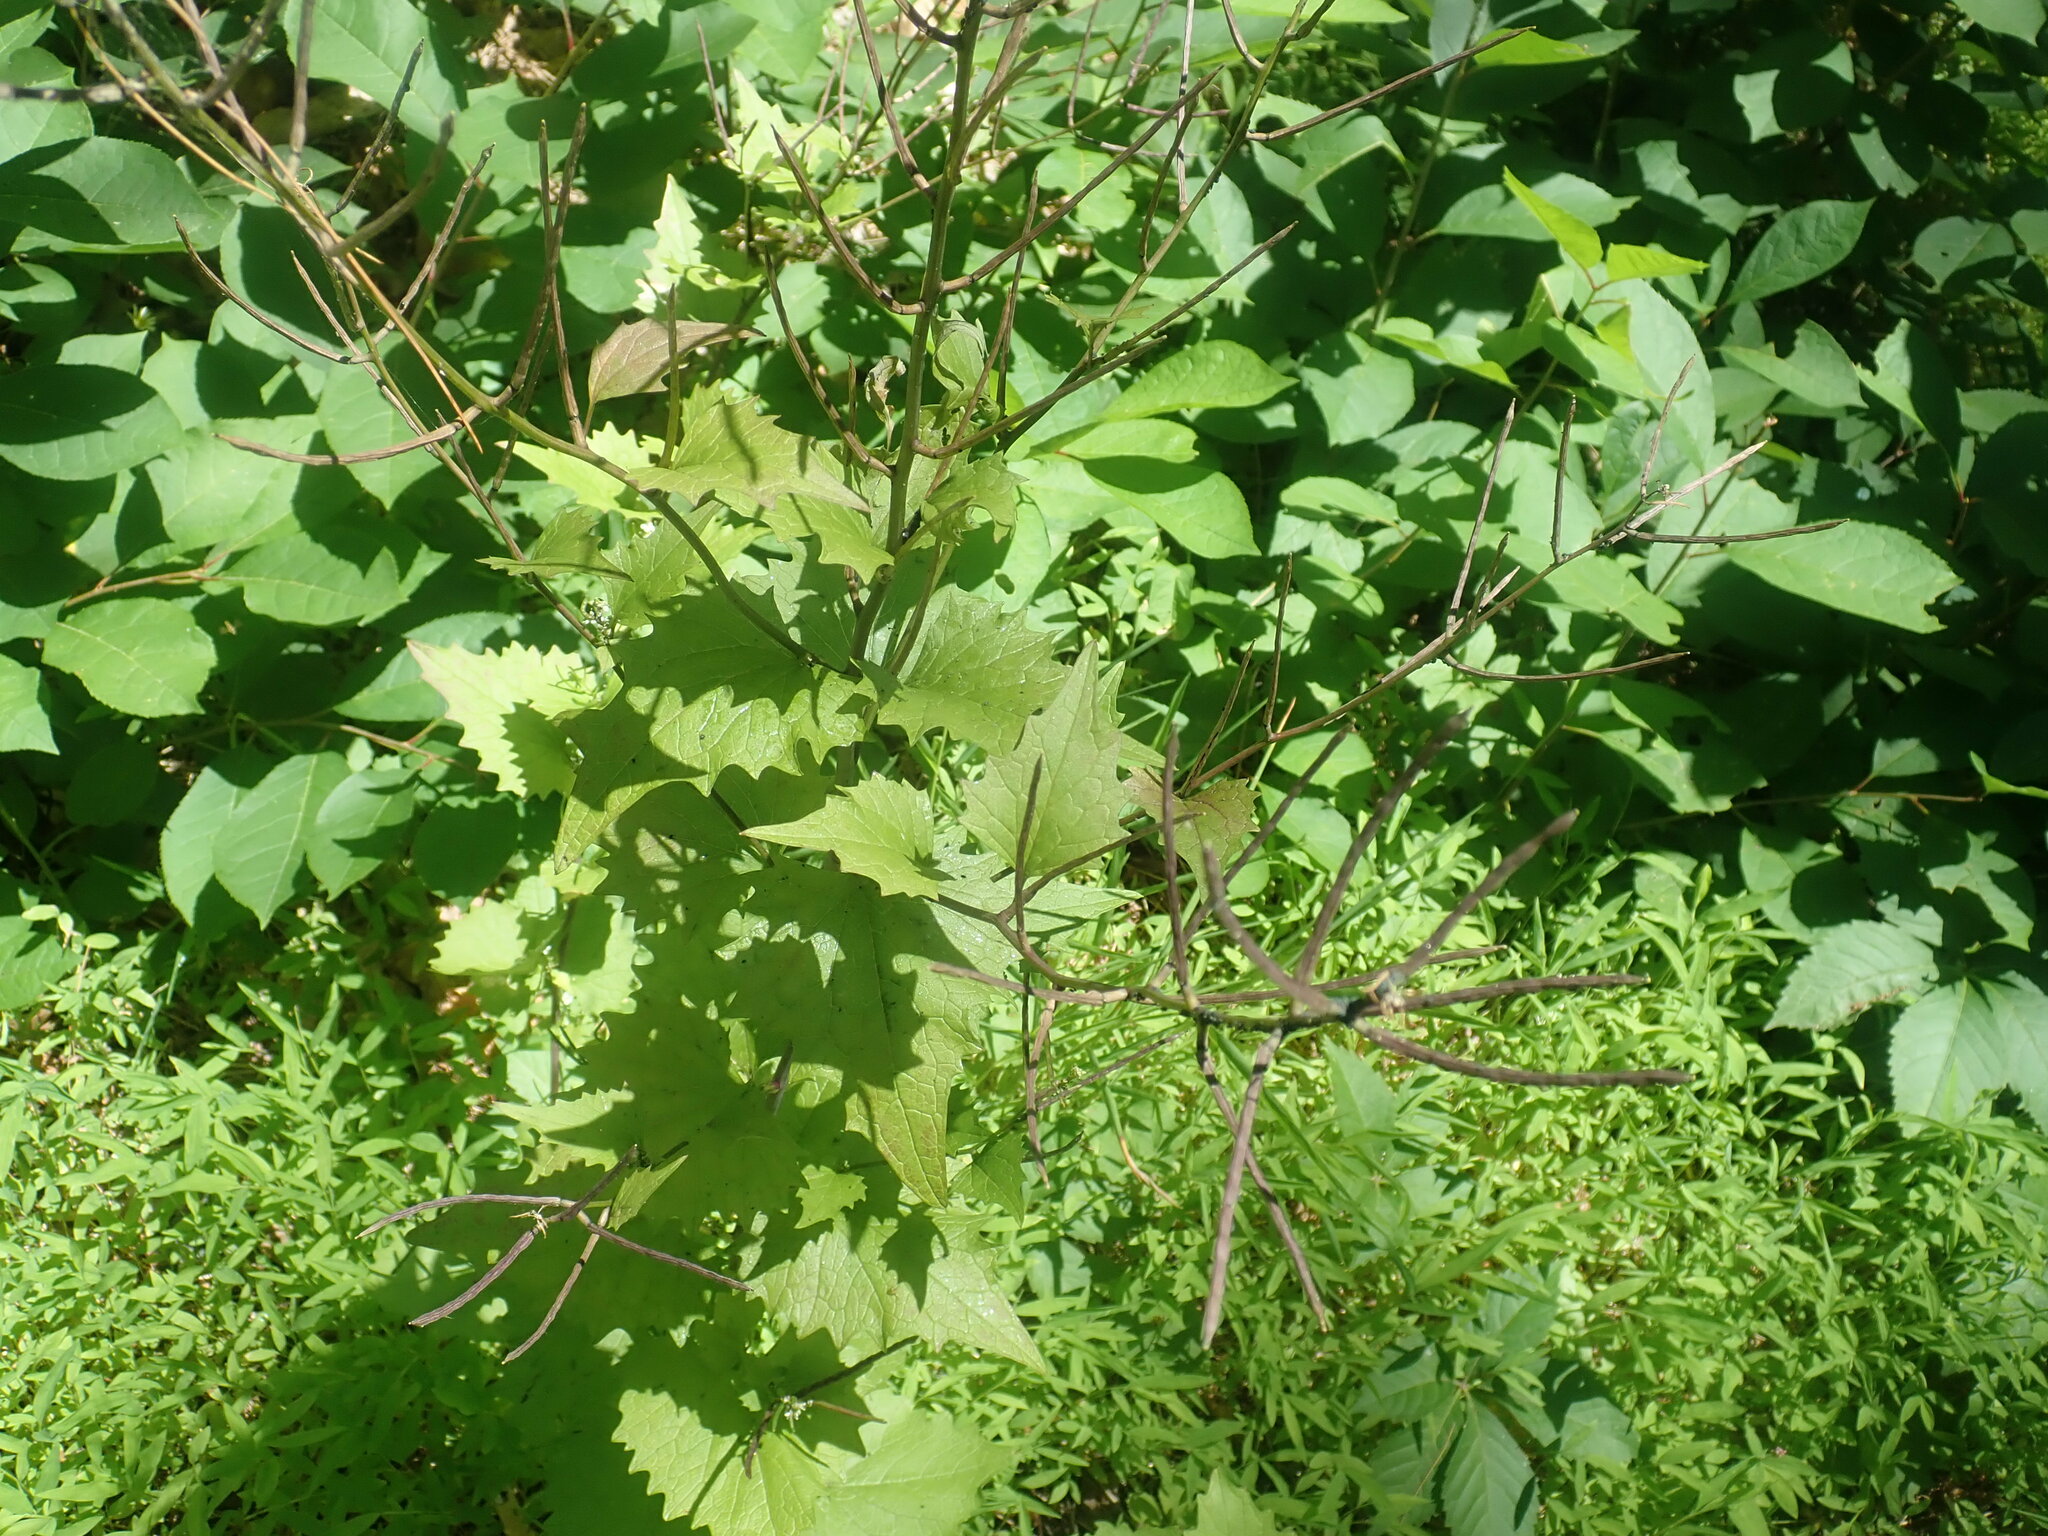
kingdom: Plantae
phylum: Tracheophyta
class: Magnoliopsida
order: Brassicales
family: Brassicaceae
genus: Alliaria
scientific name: Alliaria petiolata
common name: Garlic mustard
